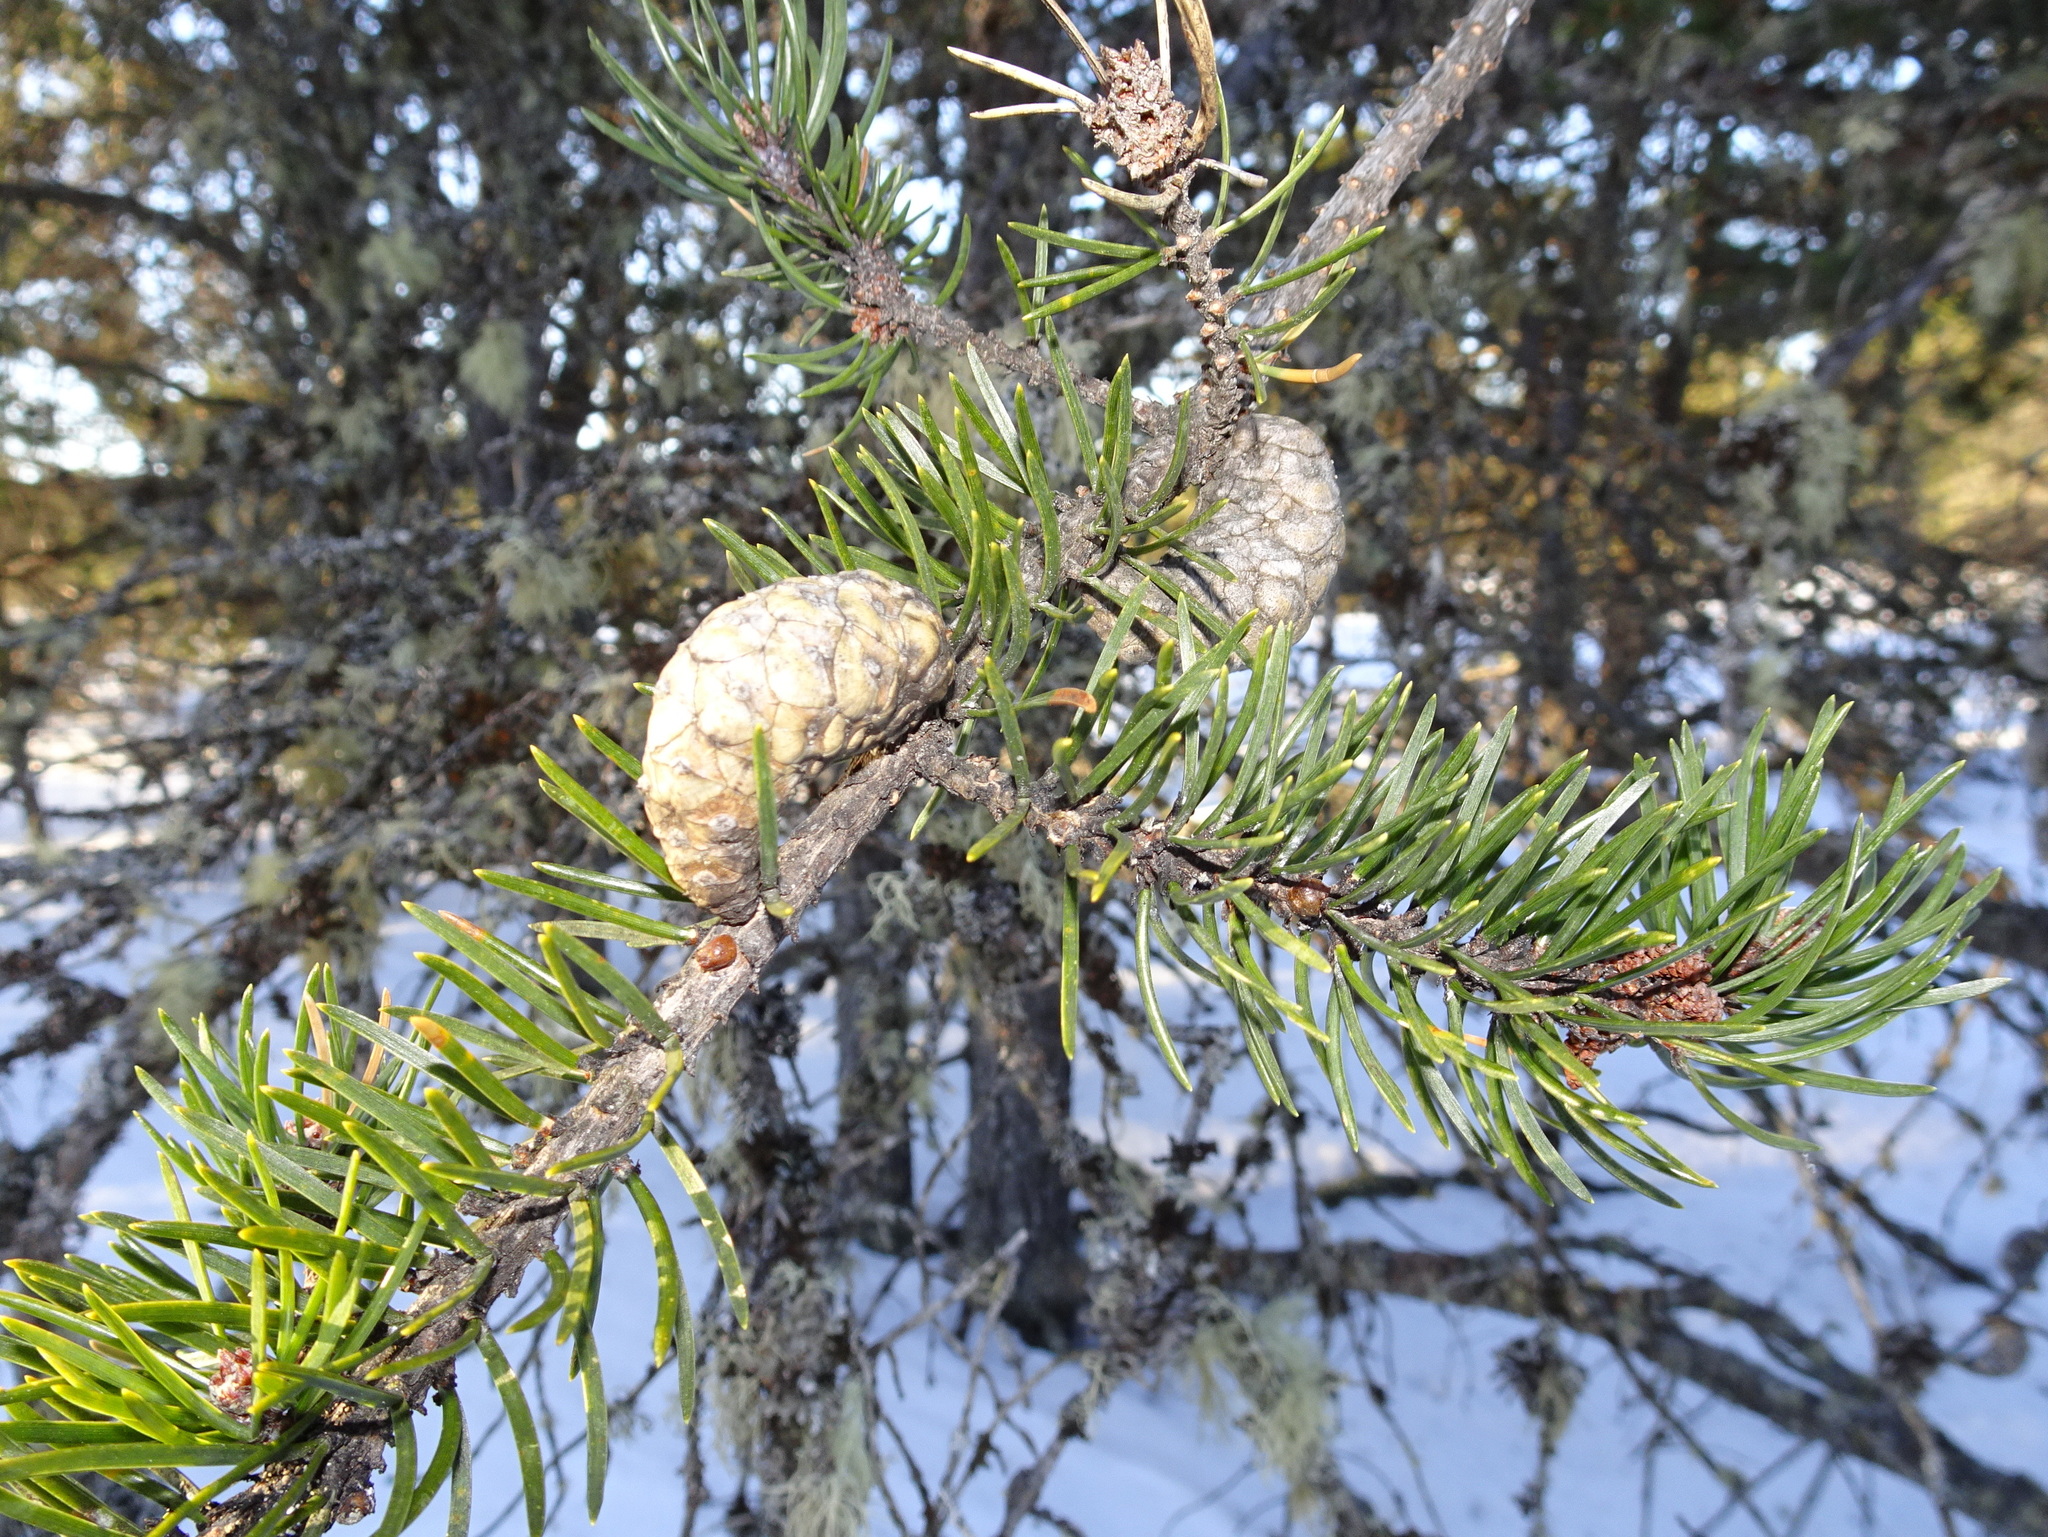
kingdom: Plantae
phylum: Tracheophyta
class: Pinopsida
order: Pinales
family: Pinaceae
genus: Pinus
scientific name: Pinus banksiana
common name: Jack pine
